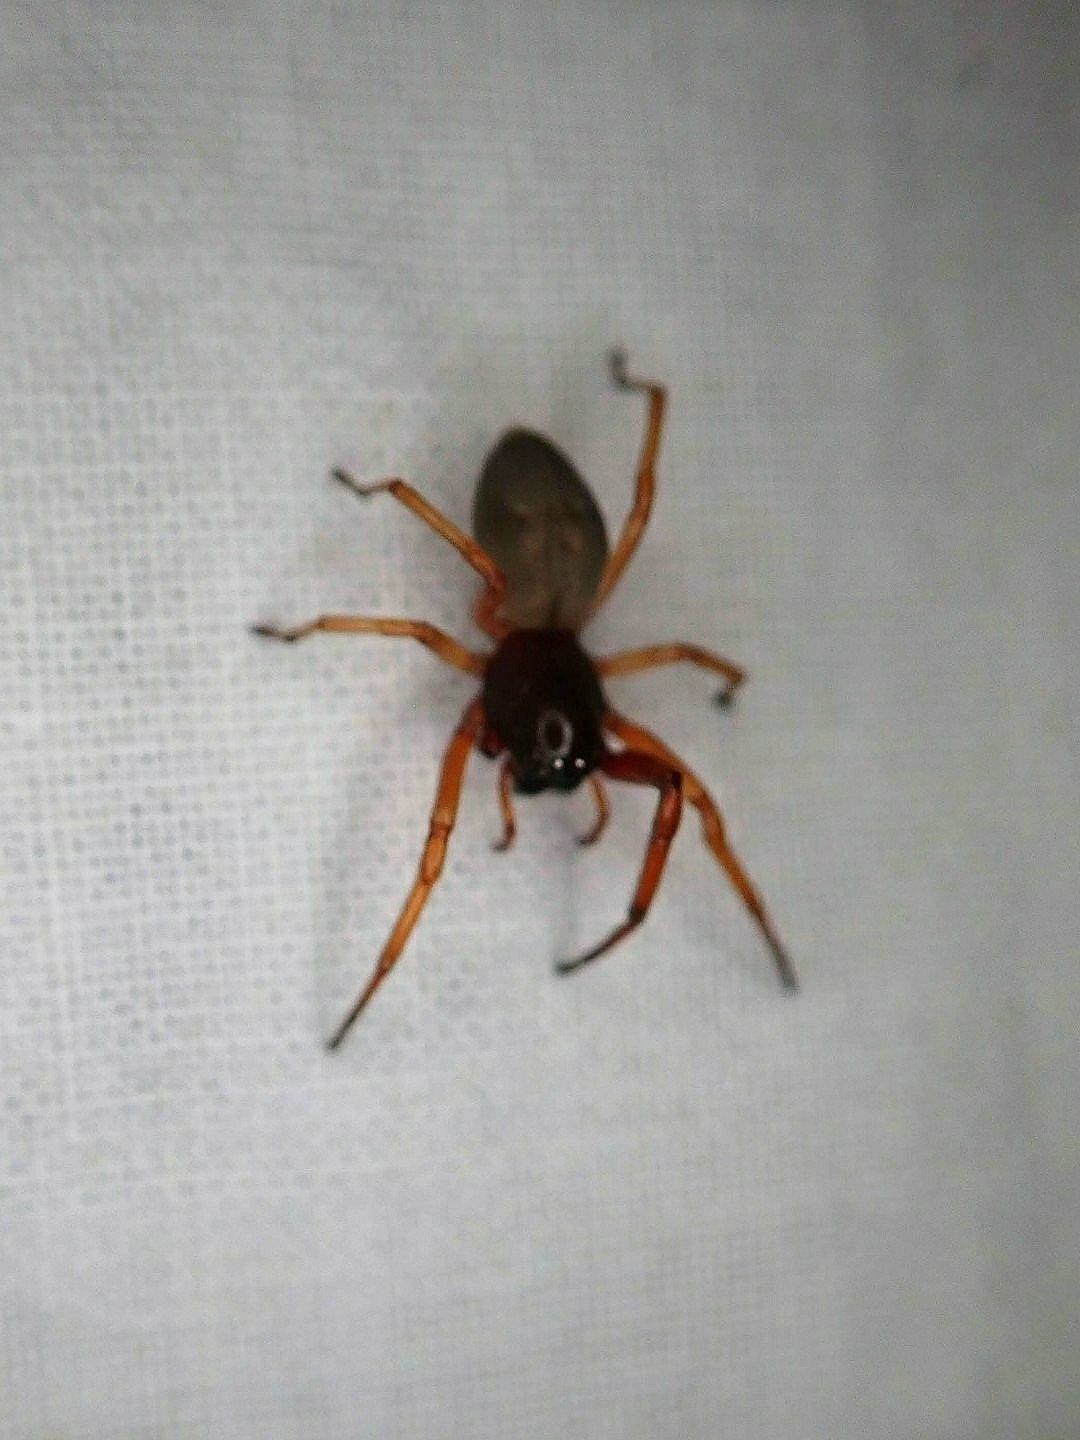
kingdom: Animalia
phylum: Arthropoda
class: Arachnida
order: Araneae
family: Trachelidae
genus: Trachelas
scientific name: Trachelas tranquillus
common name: Broad-faced sac spider
